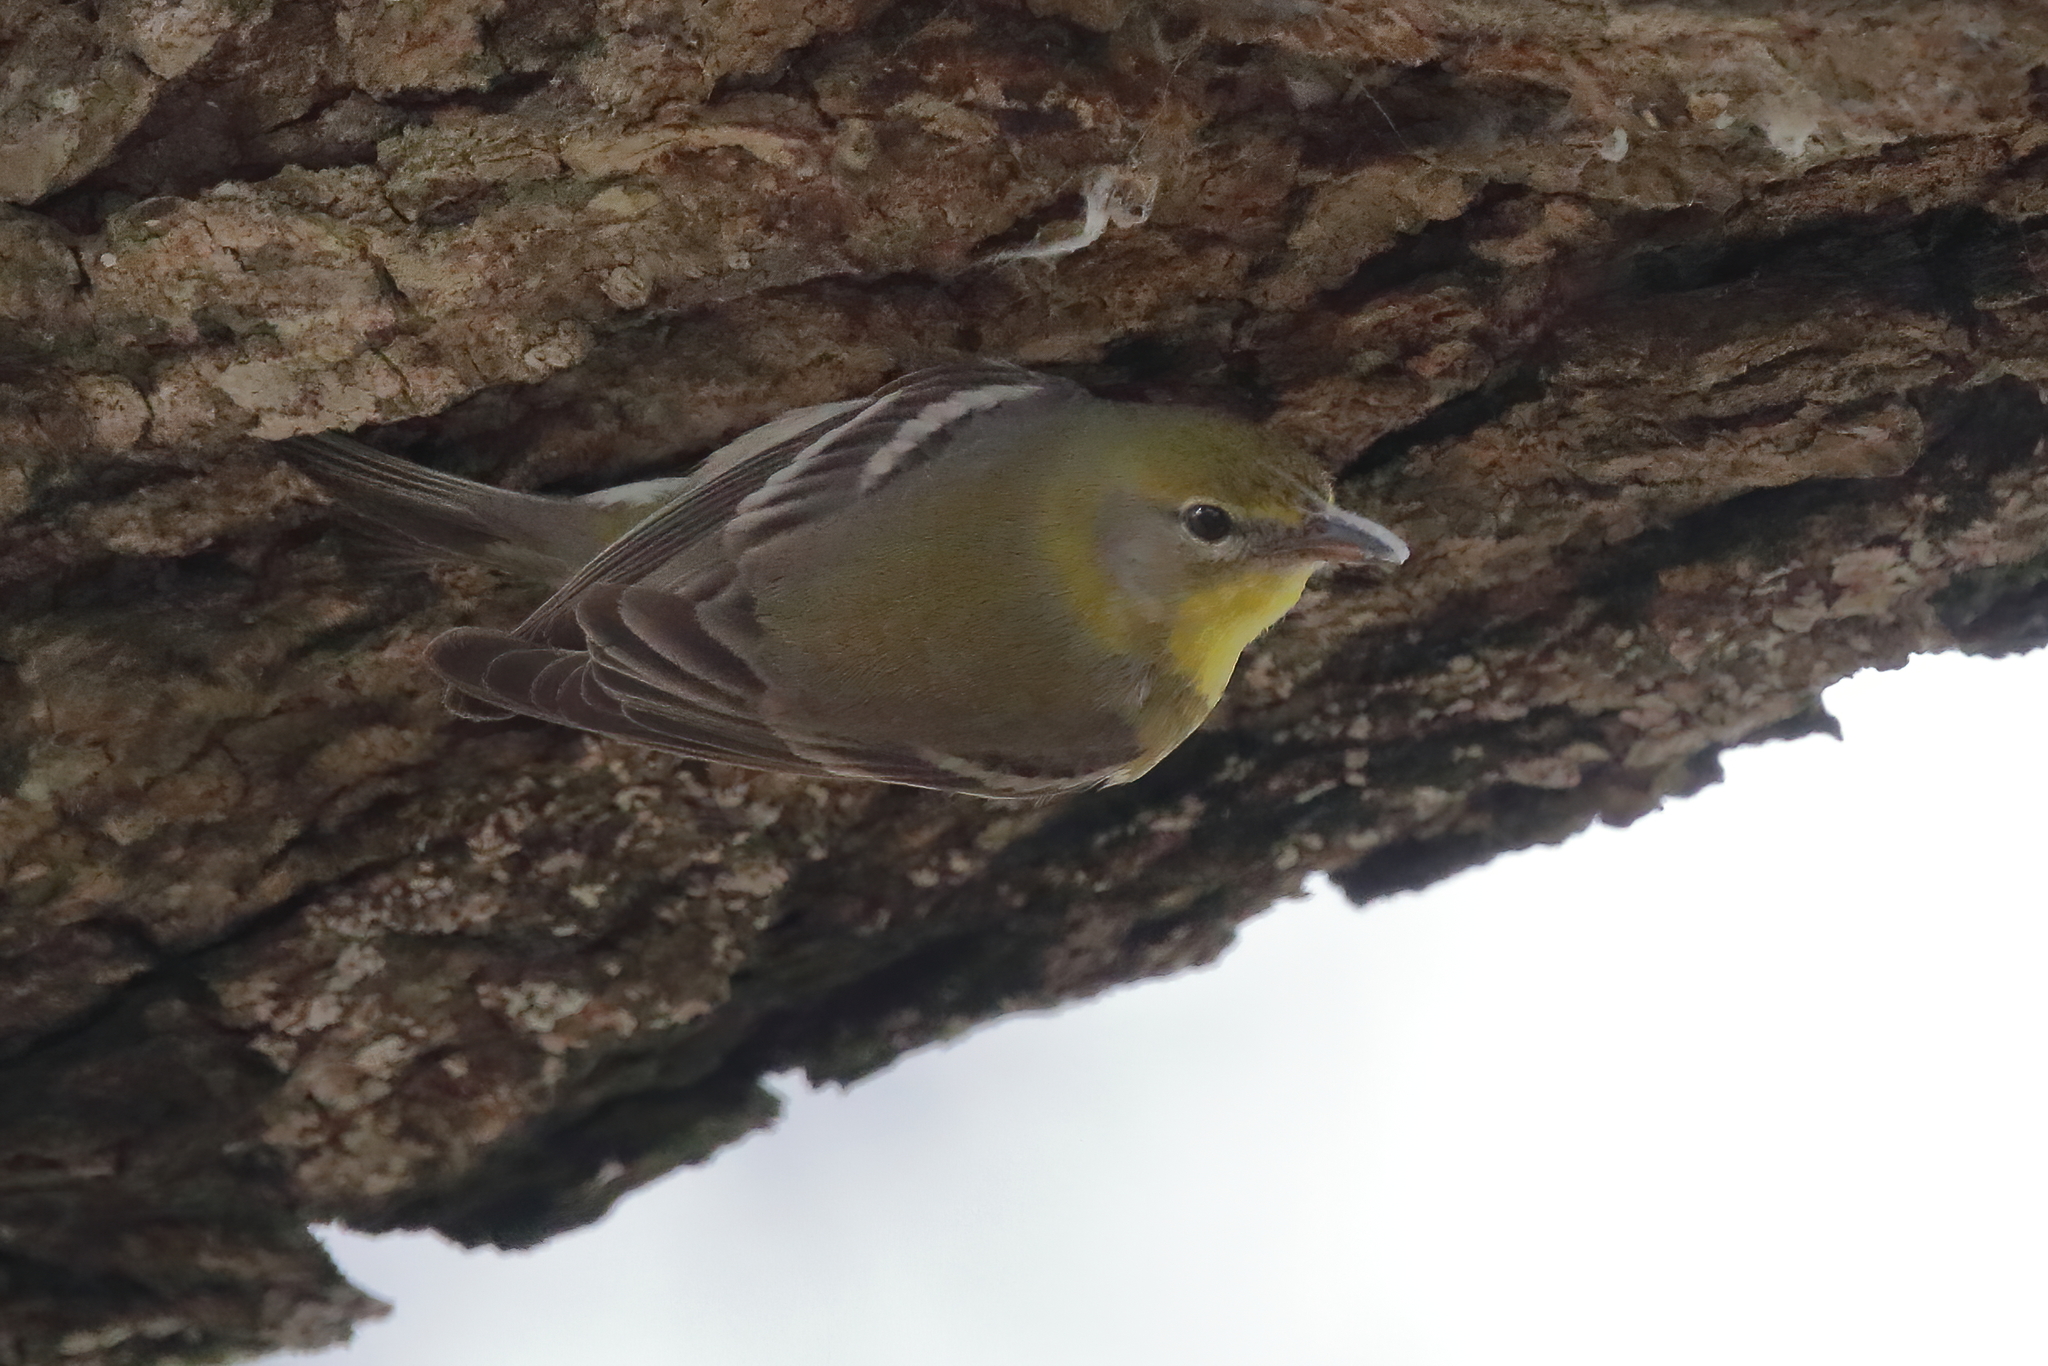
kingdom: Animalia
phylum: Chordata
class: Aves
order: Passeriformes
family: Parulidae
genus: Setophaga
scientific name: Setophaga pinus
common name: Pine warbler
